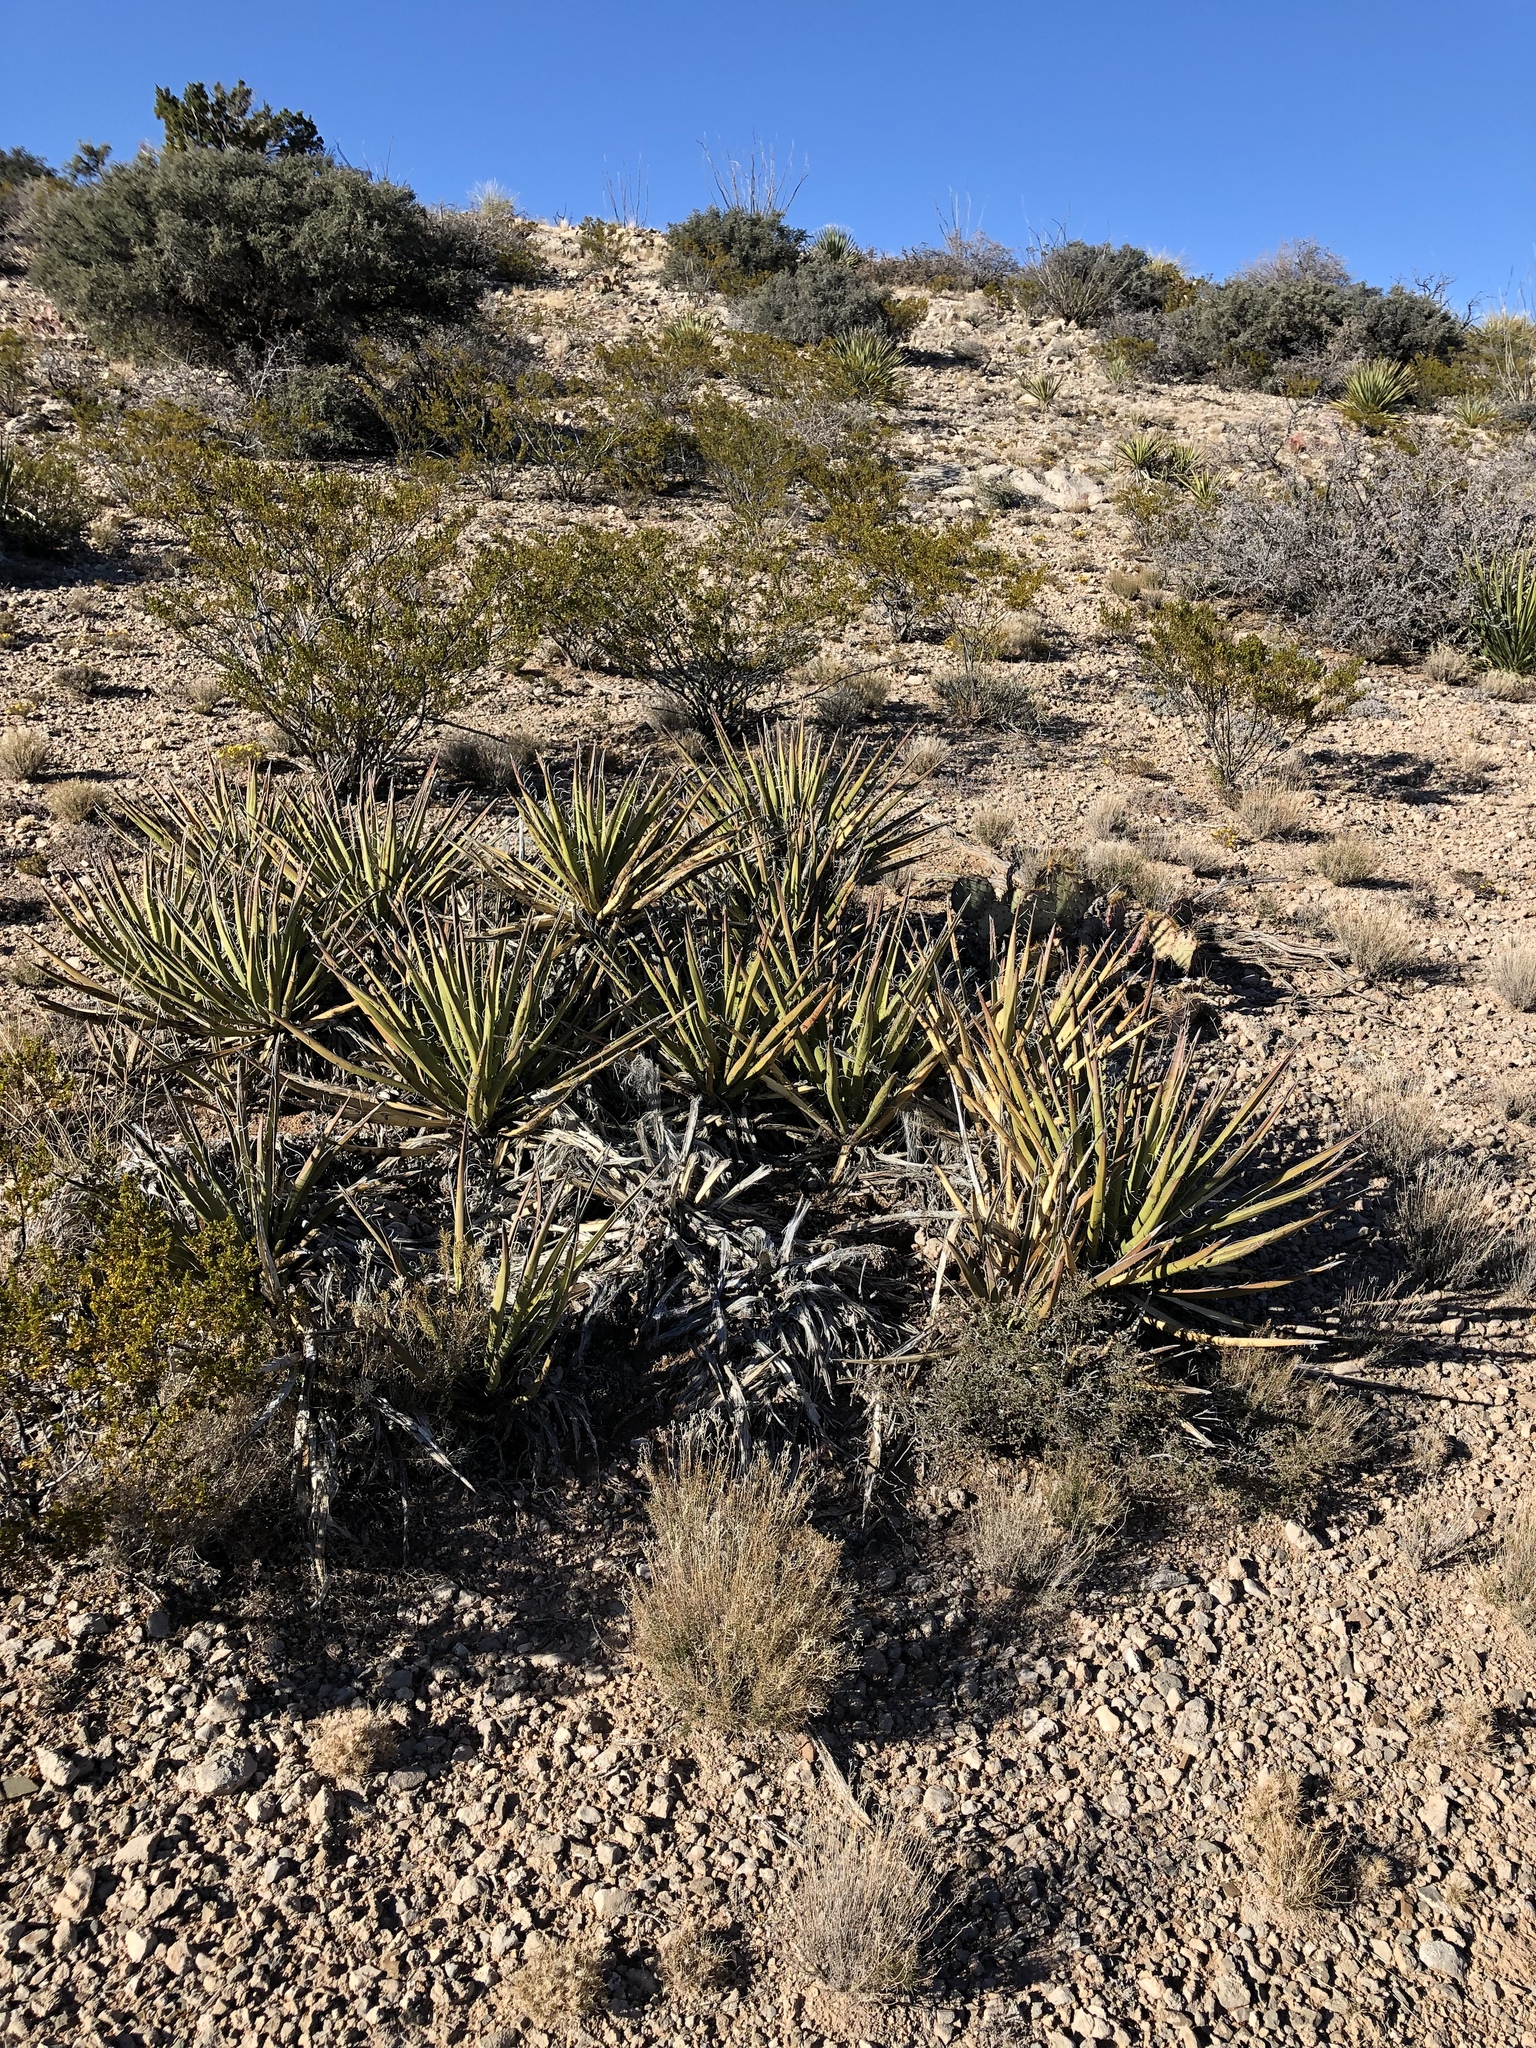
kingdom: Plantae
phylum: Tracheophyta
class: Liliopsida
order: Asparagales
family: Asparagaceae
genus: Yucca
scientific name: Yucca baccata
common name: Banana yucca
